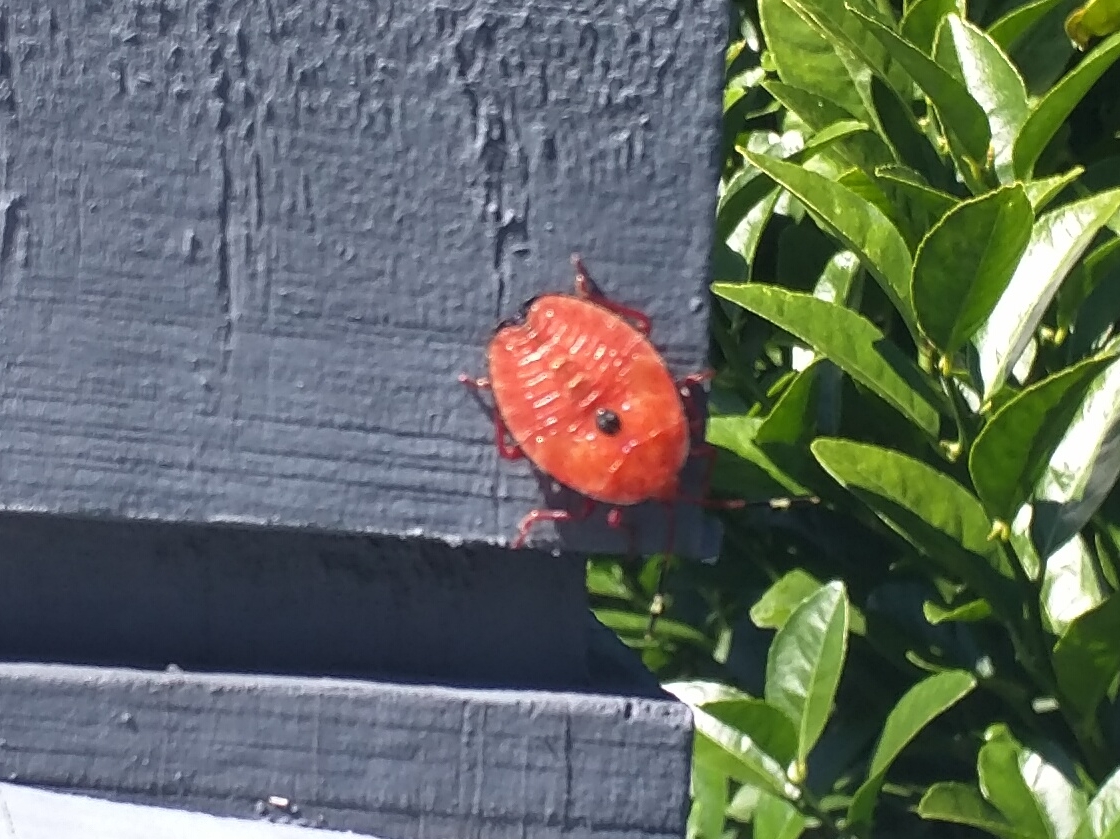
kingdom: Animalia
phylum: Arthropoda
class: Insecta
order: Hemiptera
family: Tessaratomidae
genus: Musgraveia
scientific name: Musgraveia sulciventris
